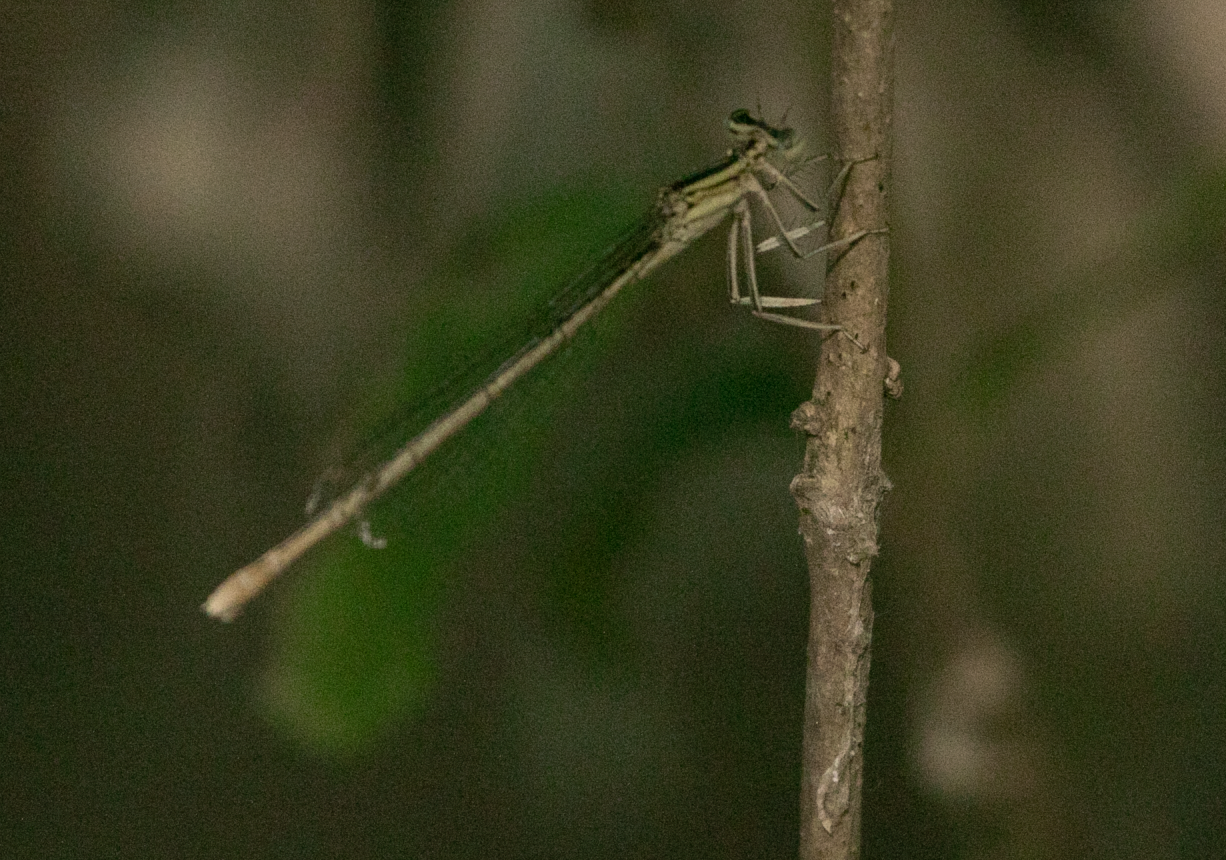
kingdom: Animalia
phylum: Arthropoda
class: Insecta
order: Odonata
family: Platycnemididae
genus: Platycnemis
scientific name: Platycnemis pennipes
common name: White-legged damselfly
